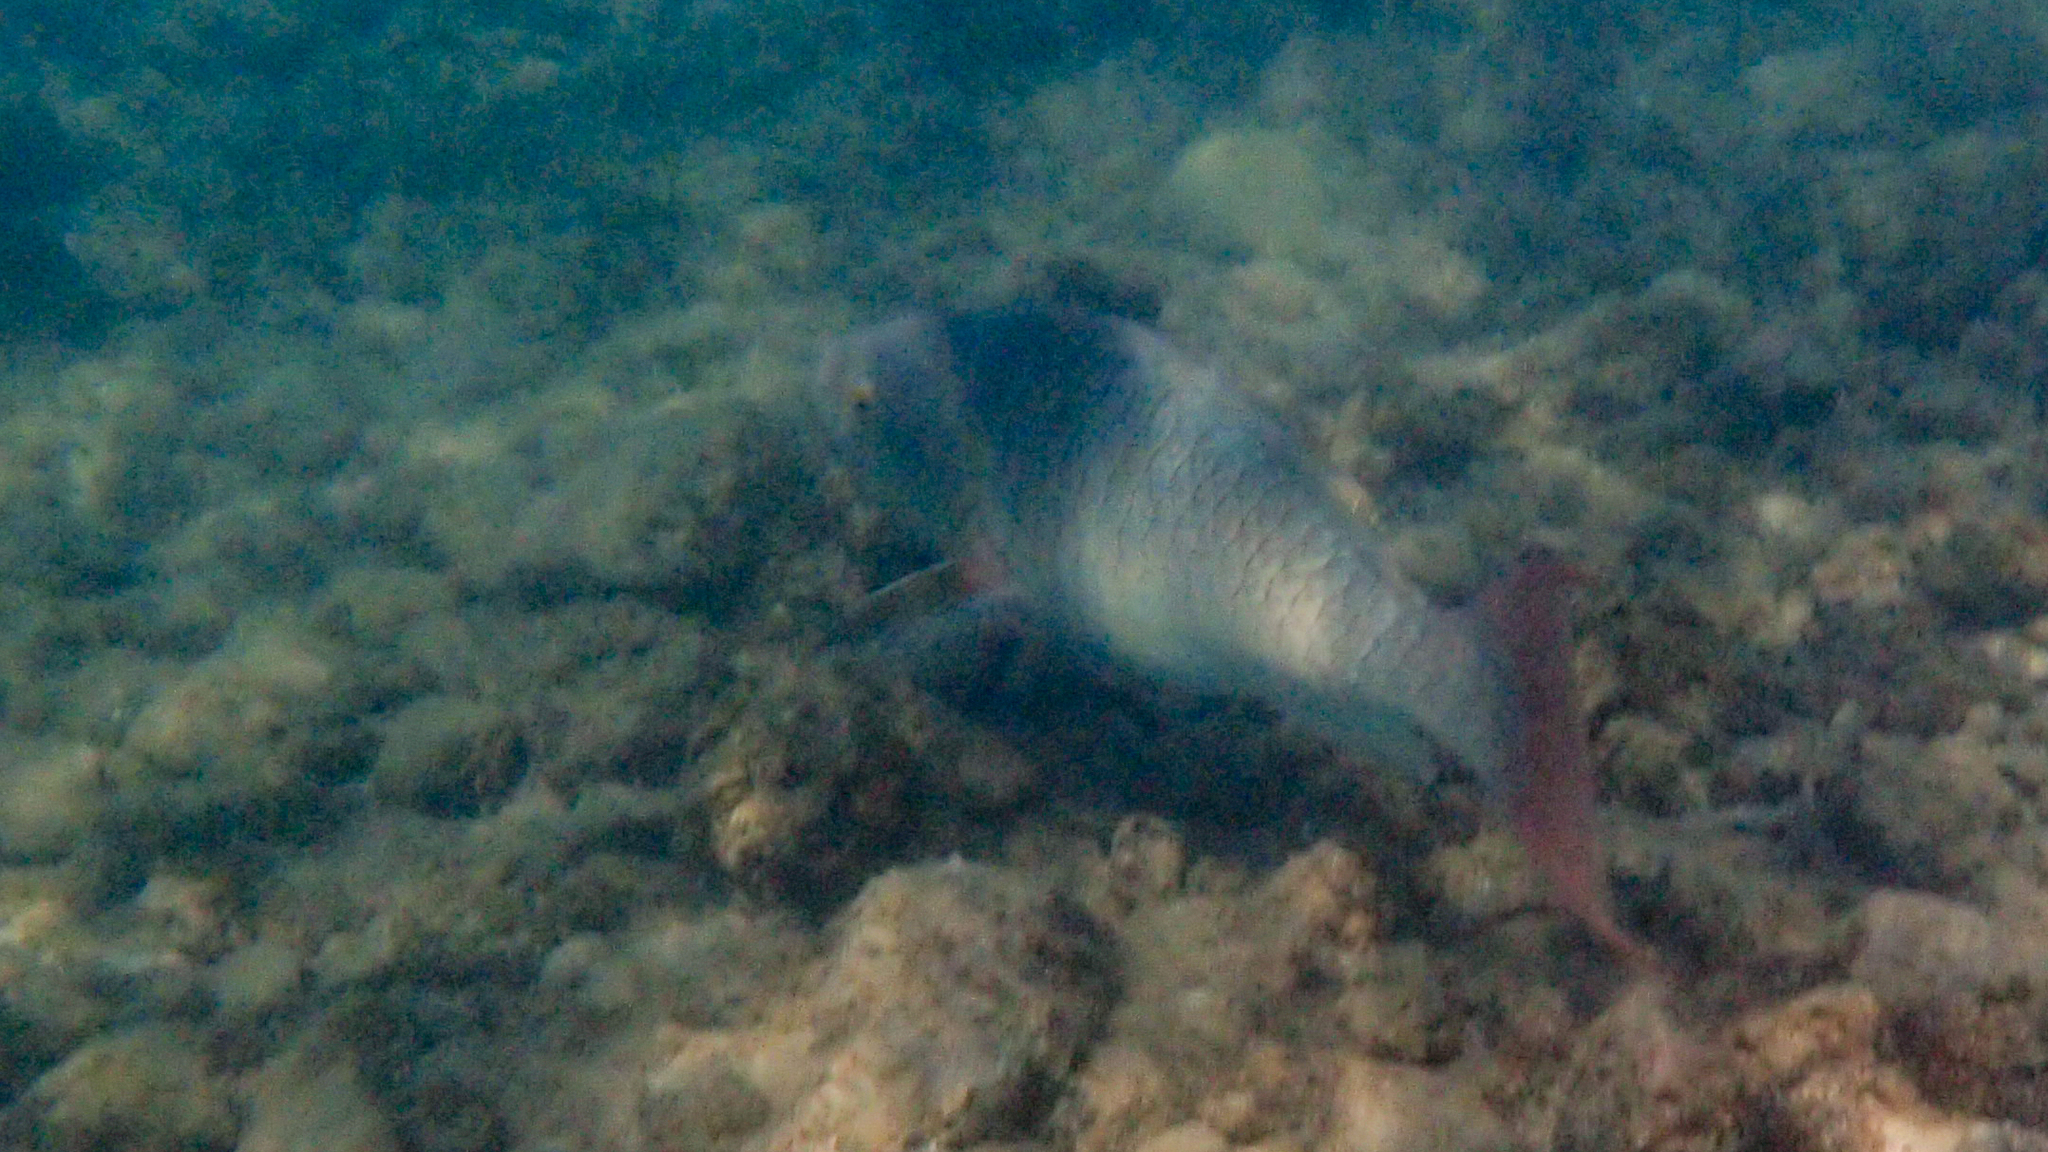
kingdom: Animalia
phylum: Chordata
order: Perciformes
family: Scaridae
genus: Scarus
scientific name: Scarus rubroviolaceus
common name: Ember parrotfish
